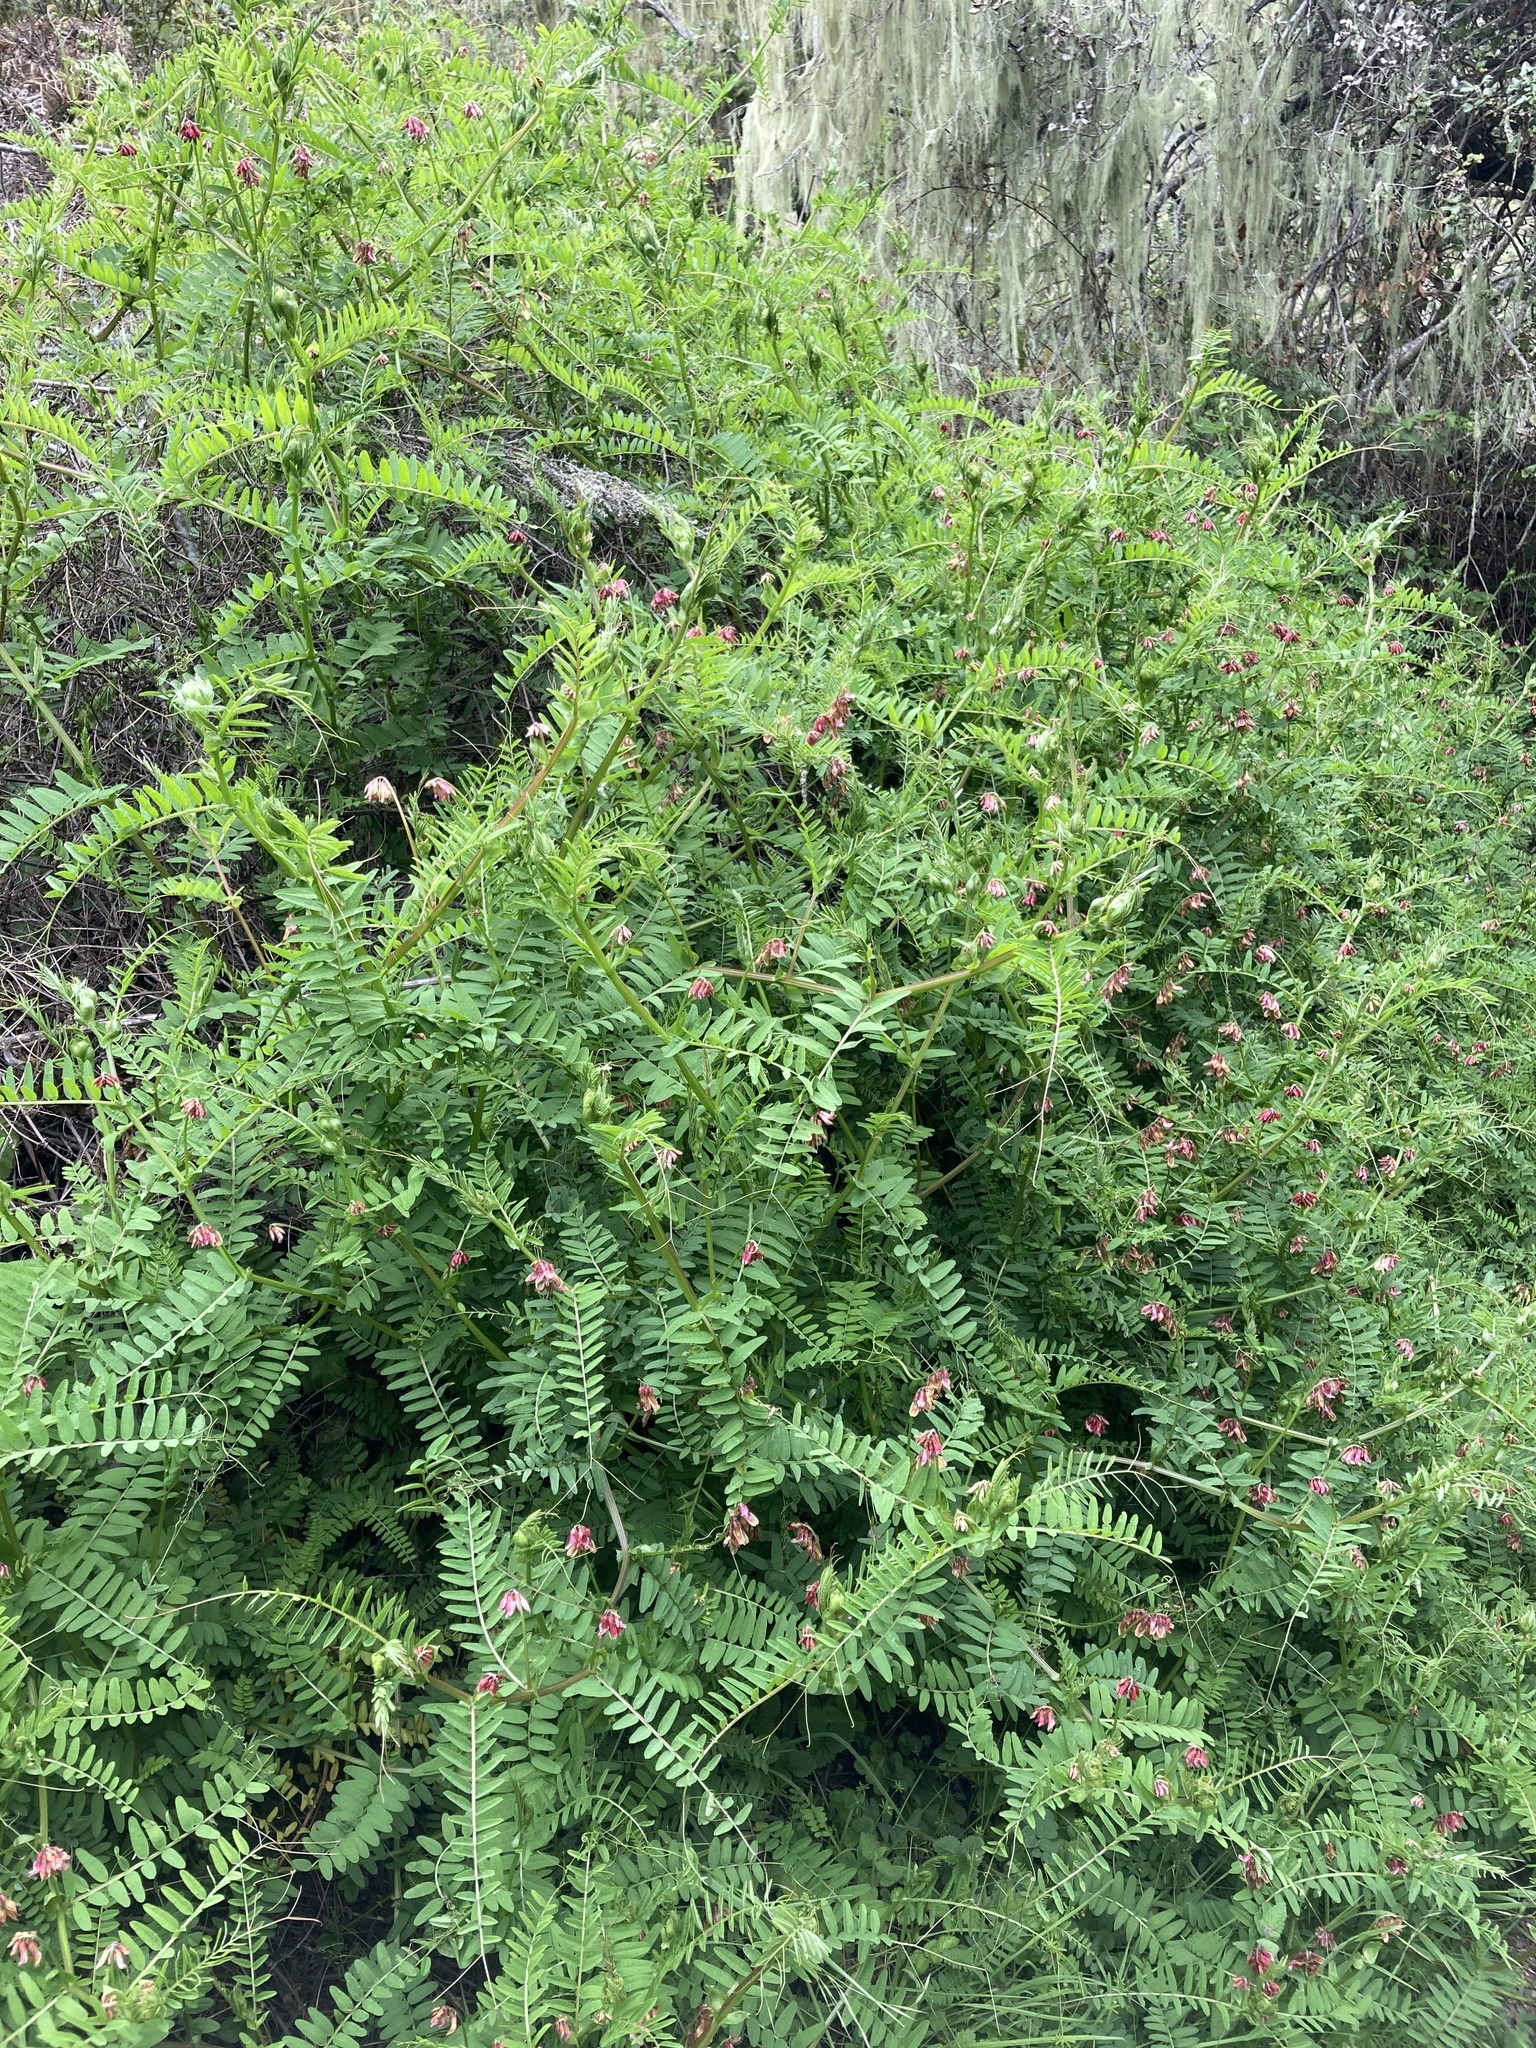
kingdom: Plantae
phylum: Tracheophyta
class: Magnoliopsida
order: Fabales
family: Fabaceae
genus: Vicia
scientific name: Vicia
